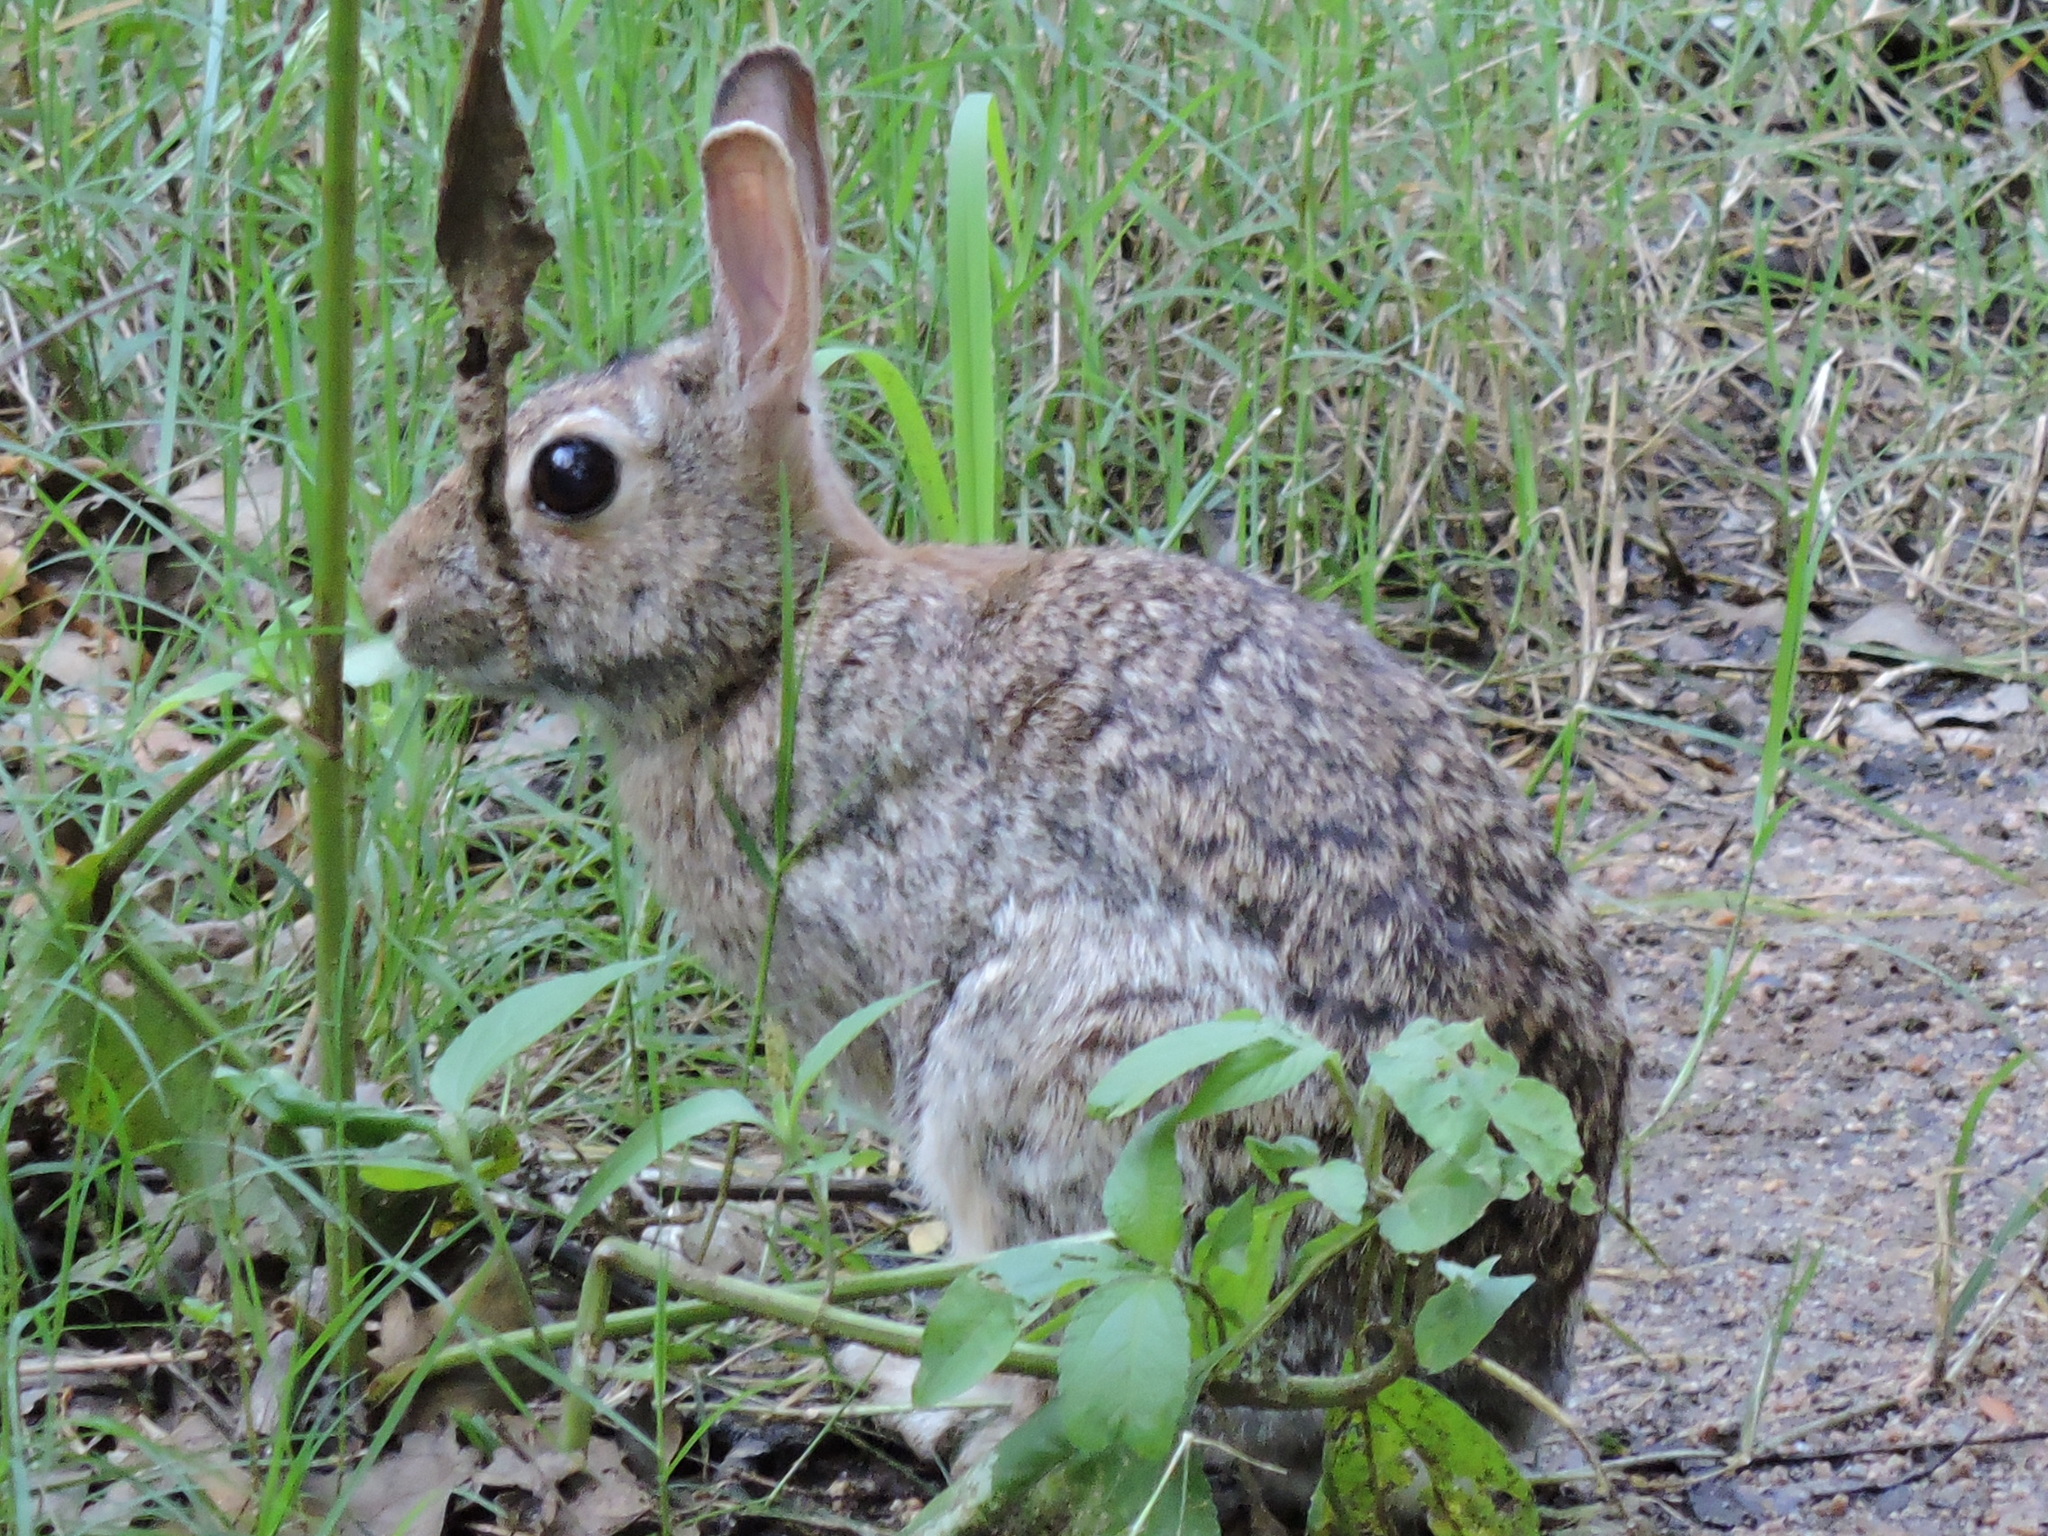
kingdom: Animalia
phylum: Chordata
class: Mammalia
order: Lagomorpha
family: Leporidae
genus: Sylvilagus
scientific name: Sylvilagus floridanus
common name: Eastern cottontail
